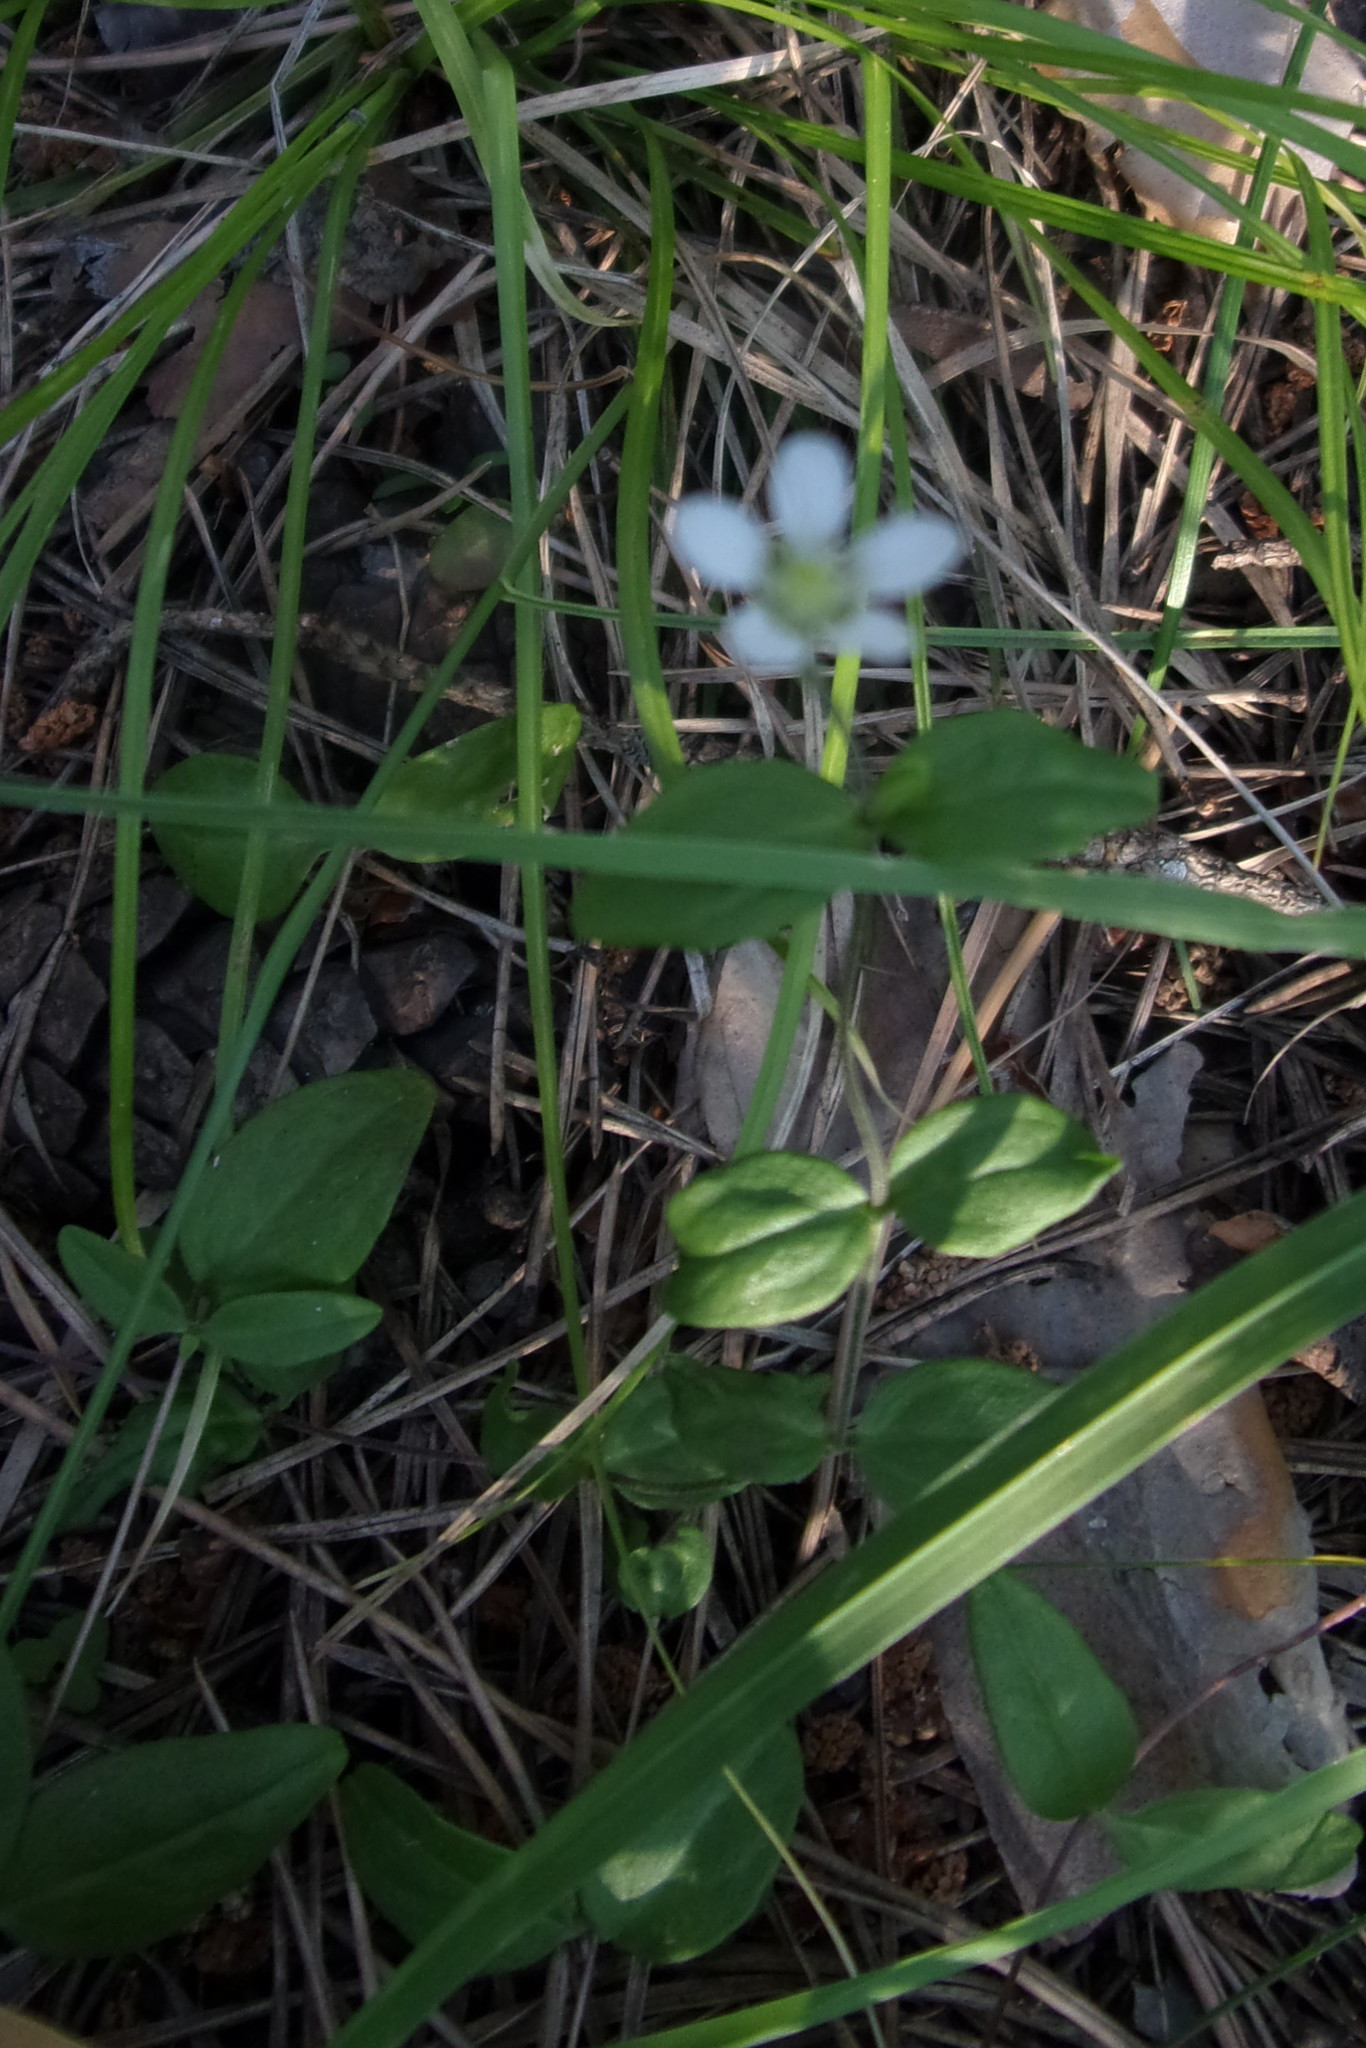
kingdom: Plantae
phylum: Tracheophyta
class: Magnoliopsida
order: Caryophyllales
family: Caryophyllaceae
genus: Moehringia
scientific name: Moehringia lateriflora
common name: Blunt-leaved sandwort
